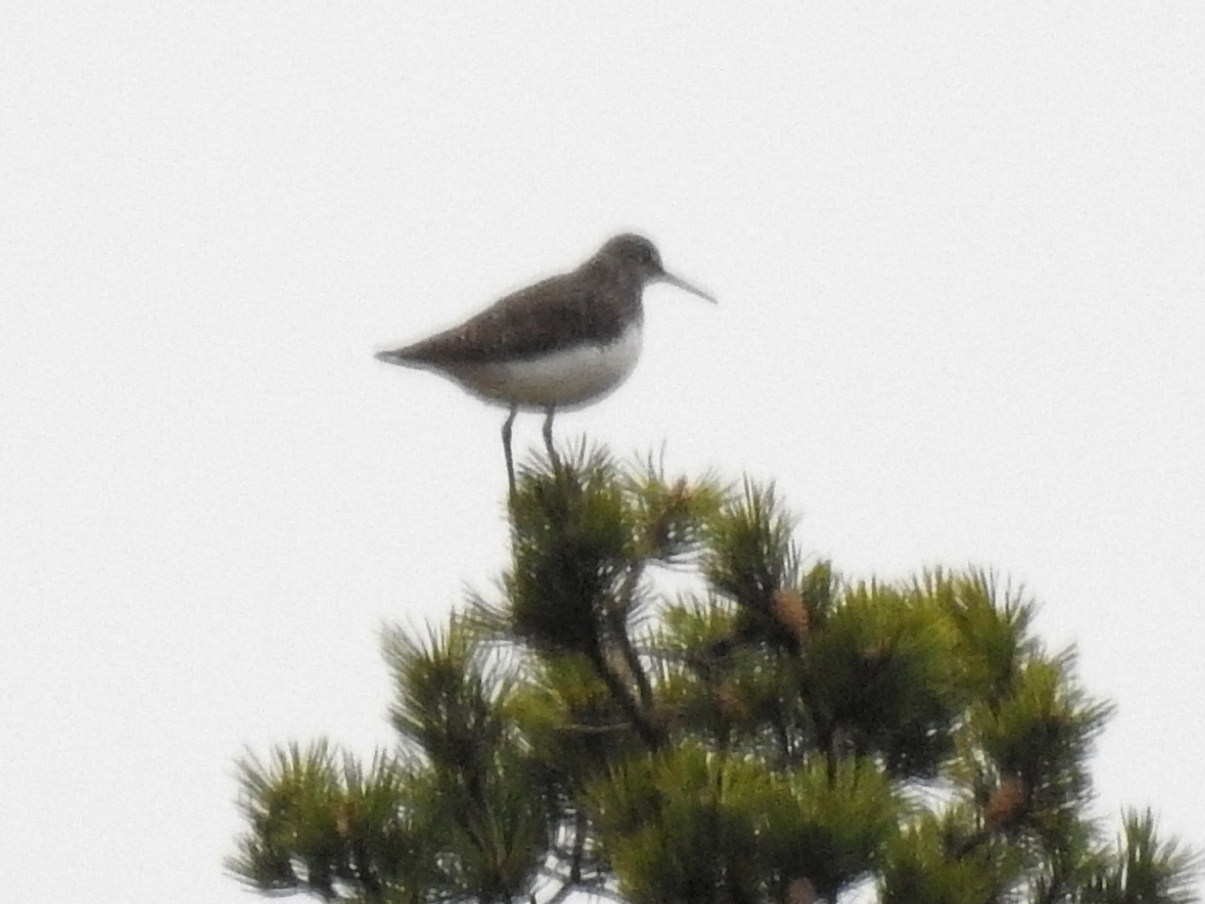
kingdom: Animalia
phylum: Chordata
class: Aves
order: Charadriiformes
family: Scolopacidae
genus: Tringa
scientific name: Tringa ochropus
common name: Green sandpiper
